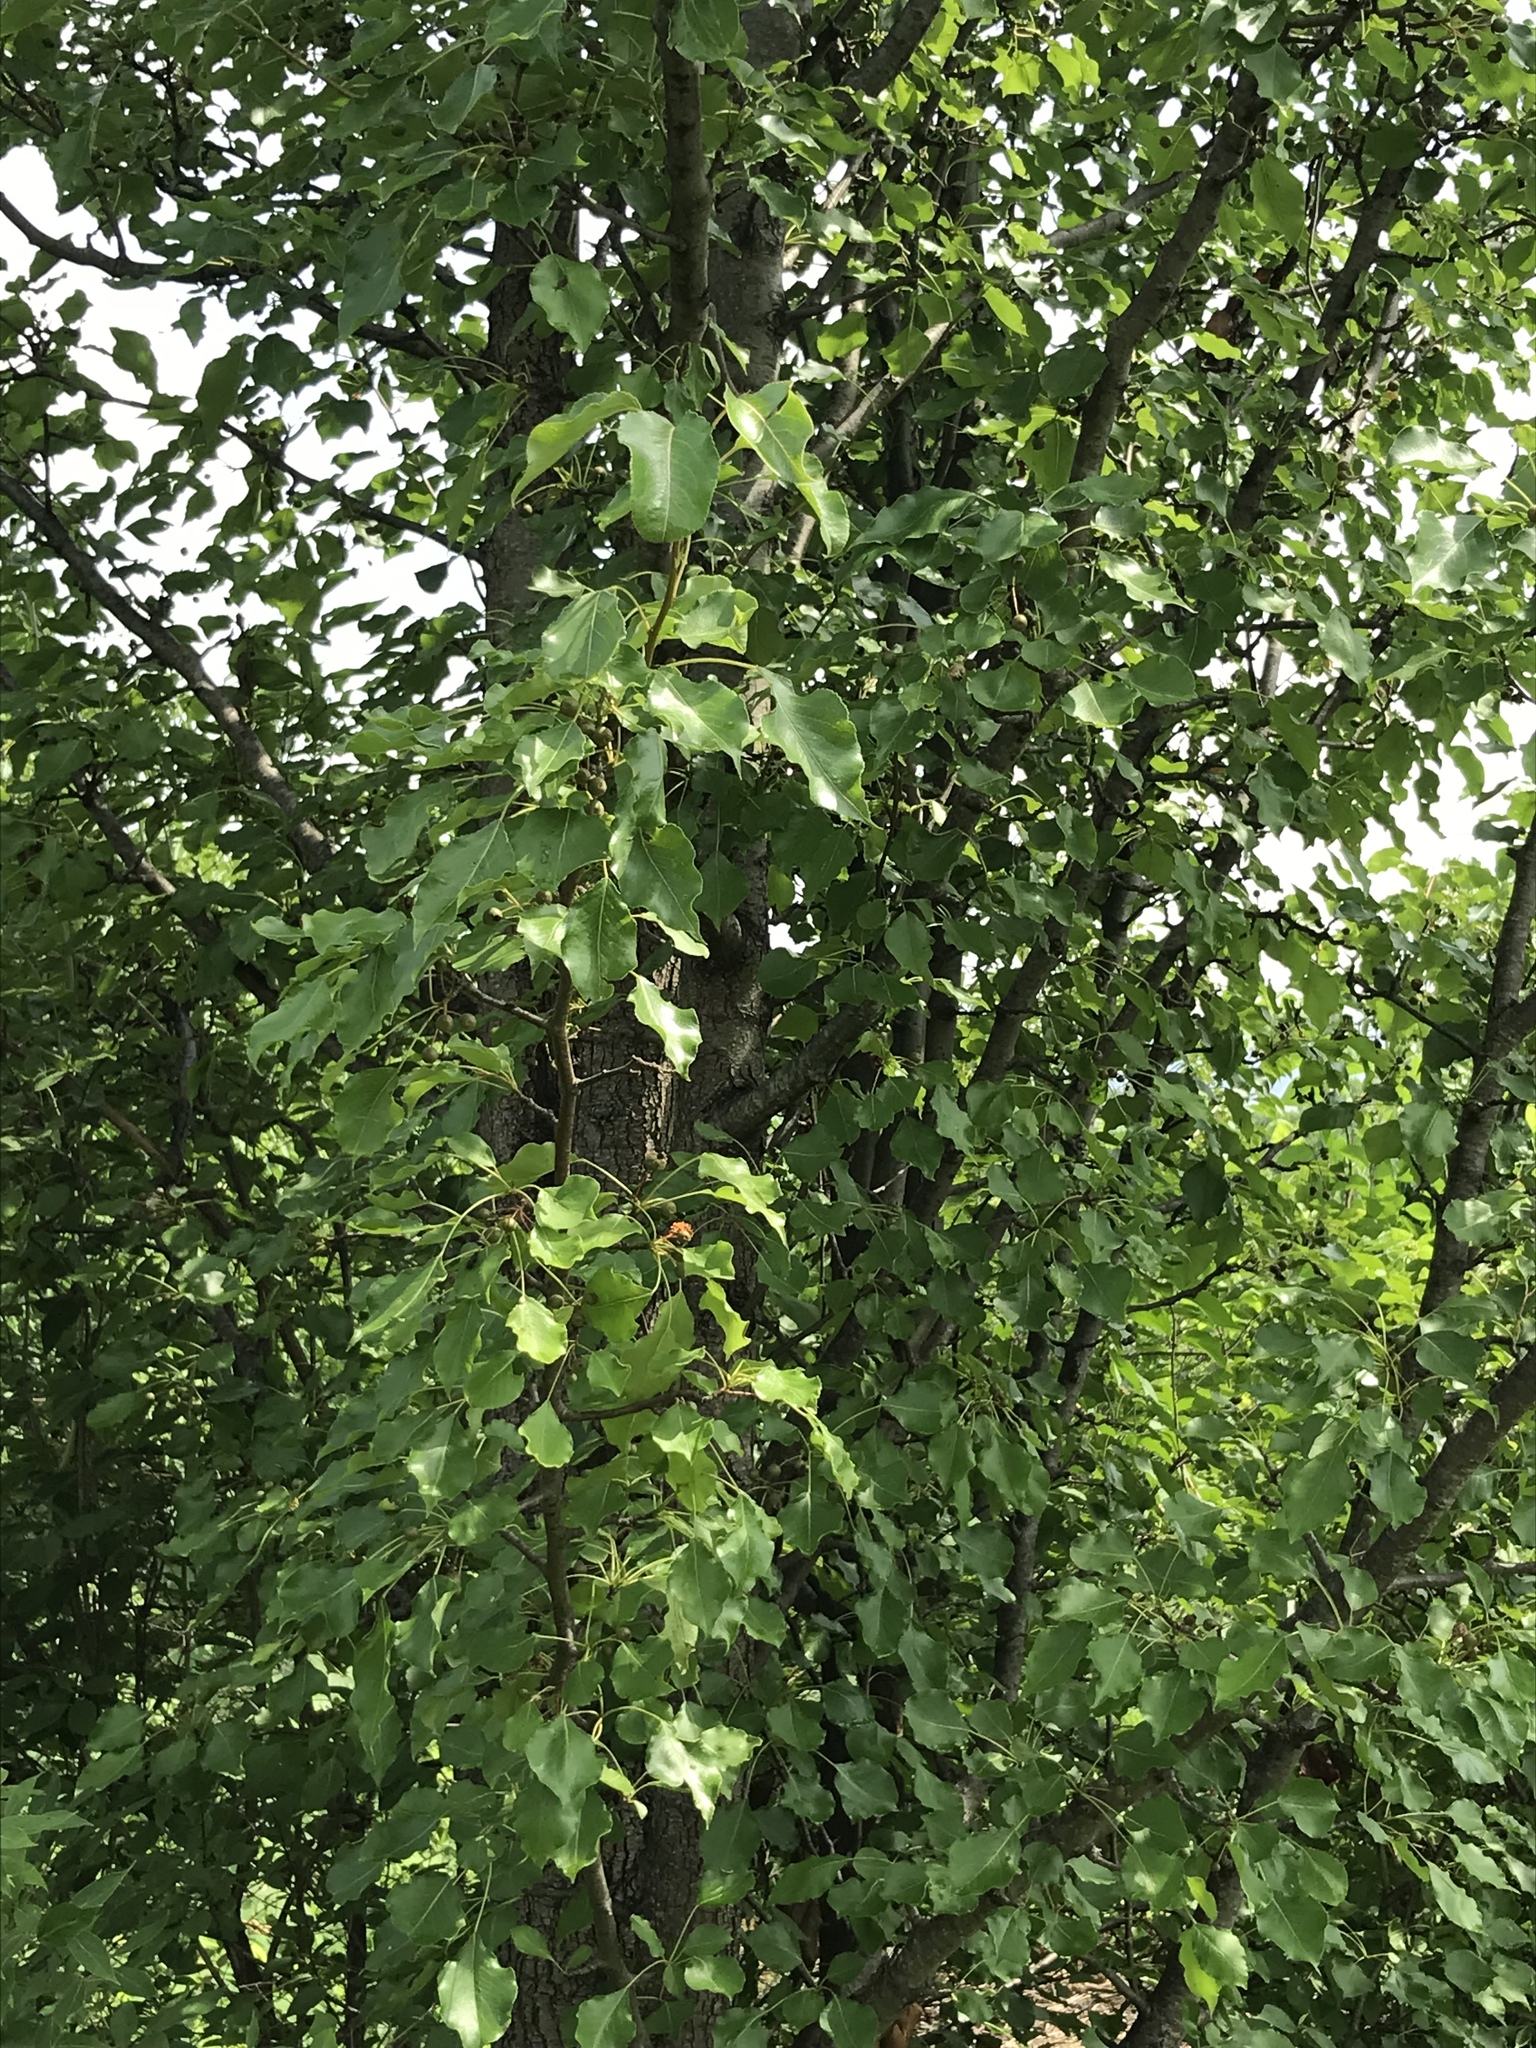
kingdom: Plantae
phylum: Tracheophyta
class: Magnoliopsida
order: Rosales
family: Rosaceae
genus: Pyrus
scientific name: Pyrus calleryana
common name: Callery pear
